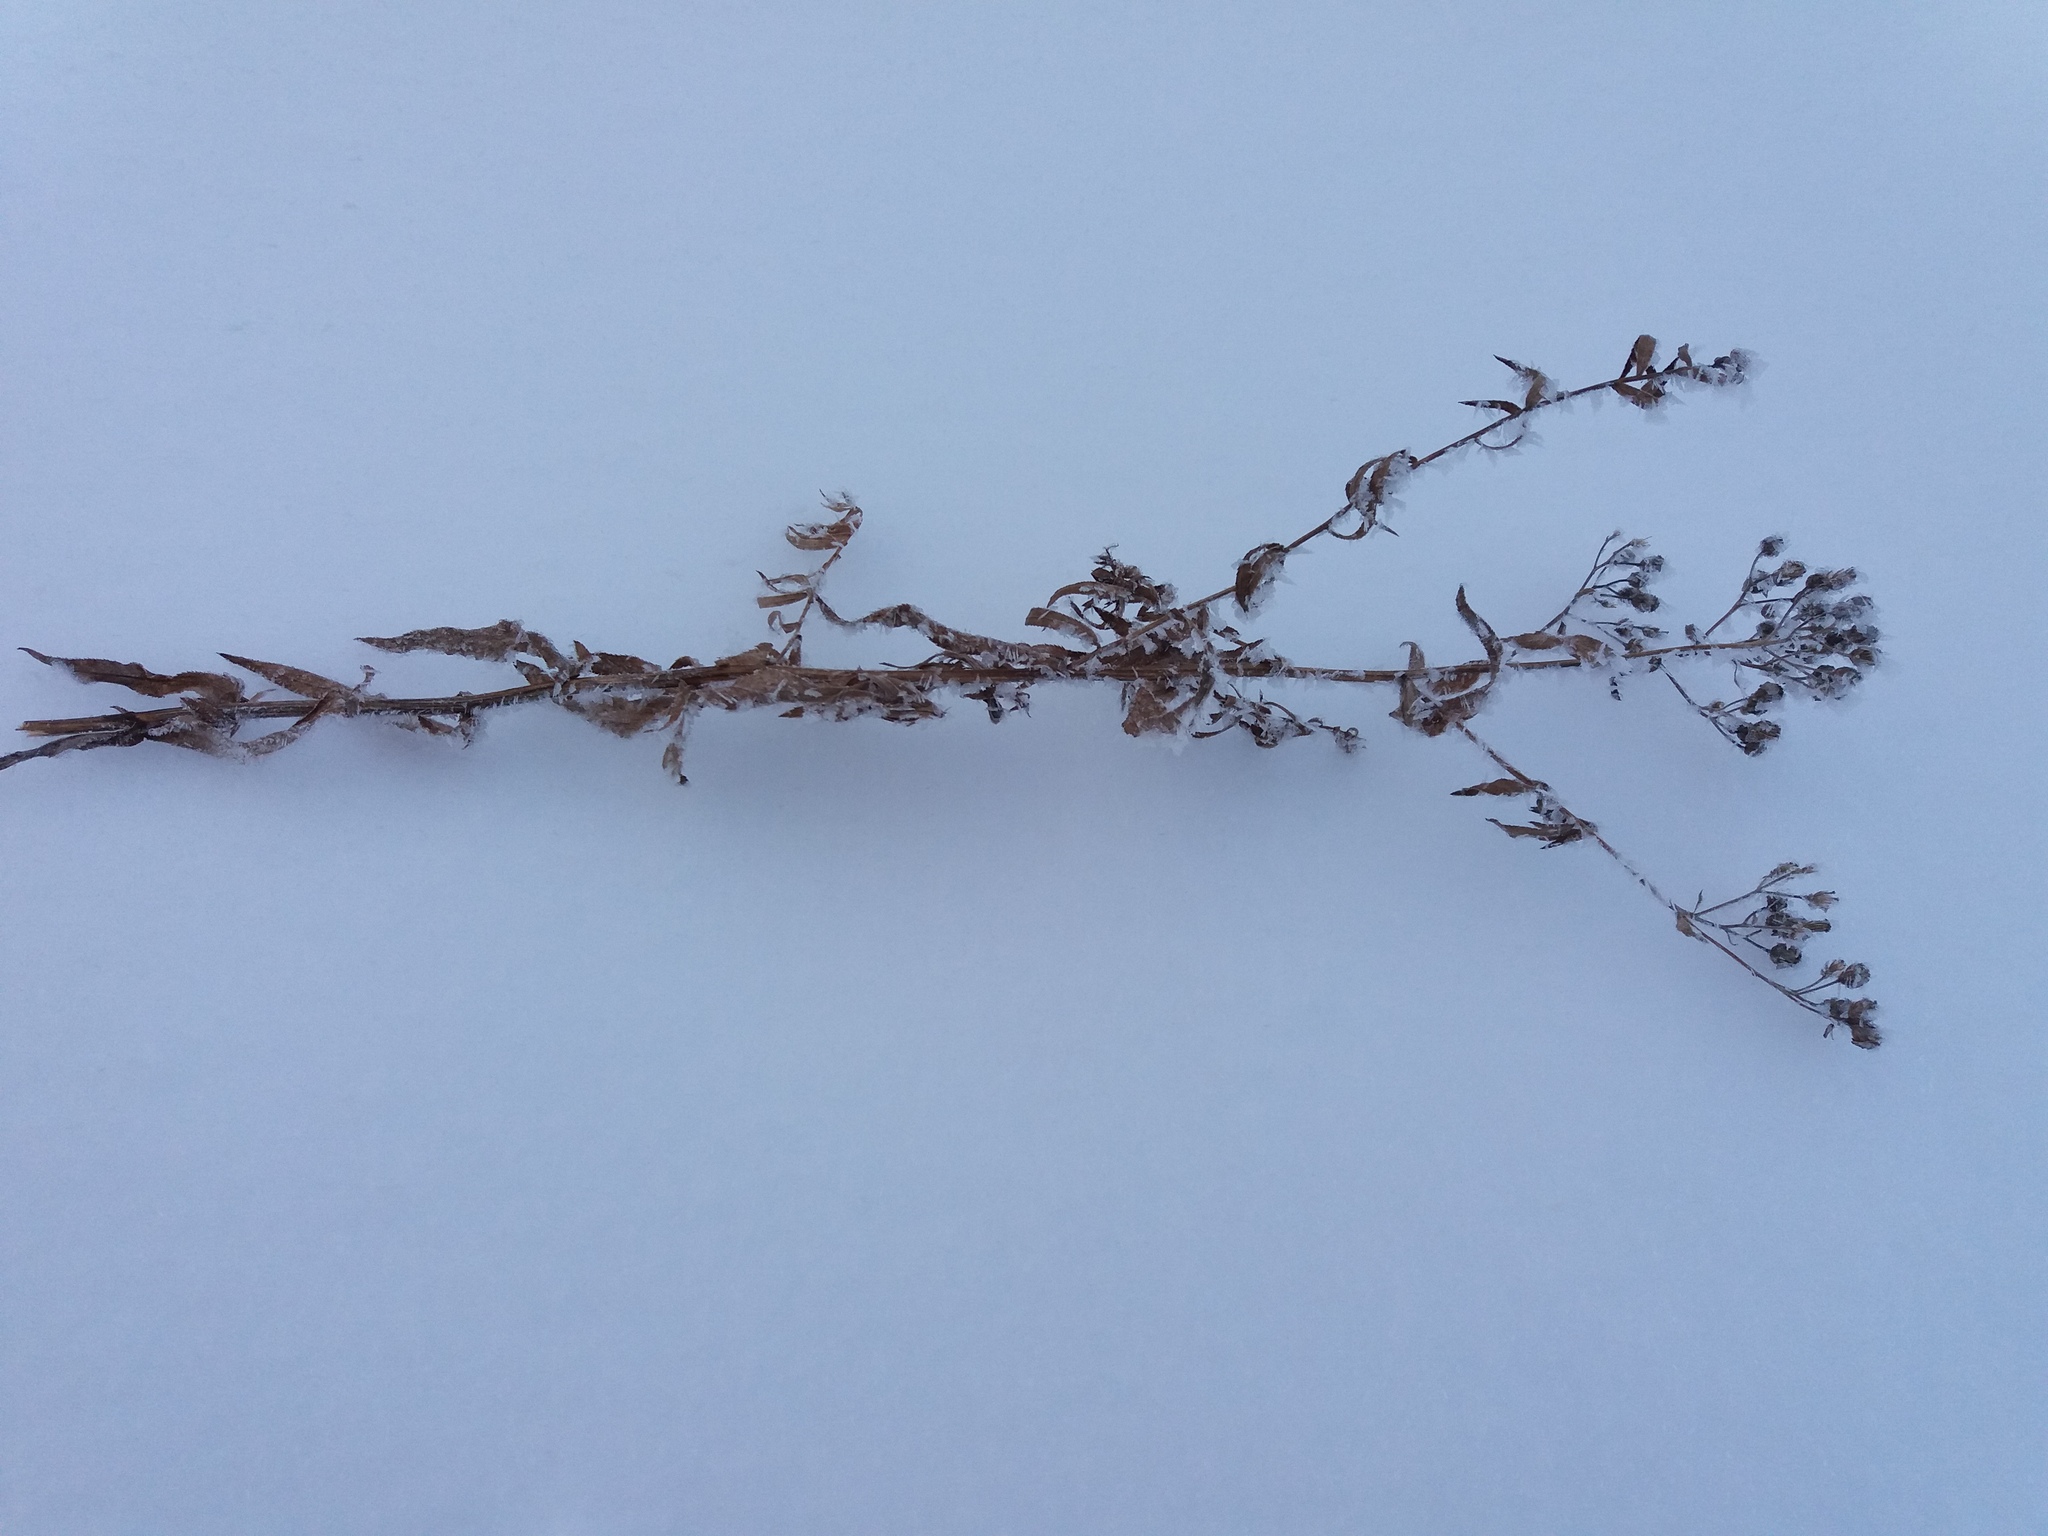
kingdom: Plantae
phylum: Tracheophyta
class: Magnoliopsida
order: Ericales
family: Primulaceae
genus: Lysimachia
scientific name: Lysimachia vulgaris
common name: Yellow loosestrife
